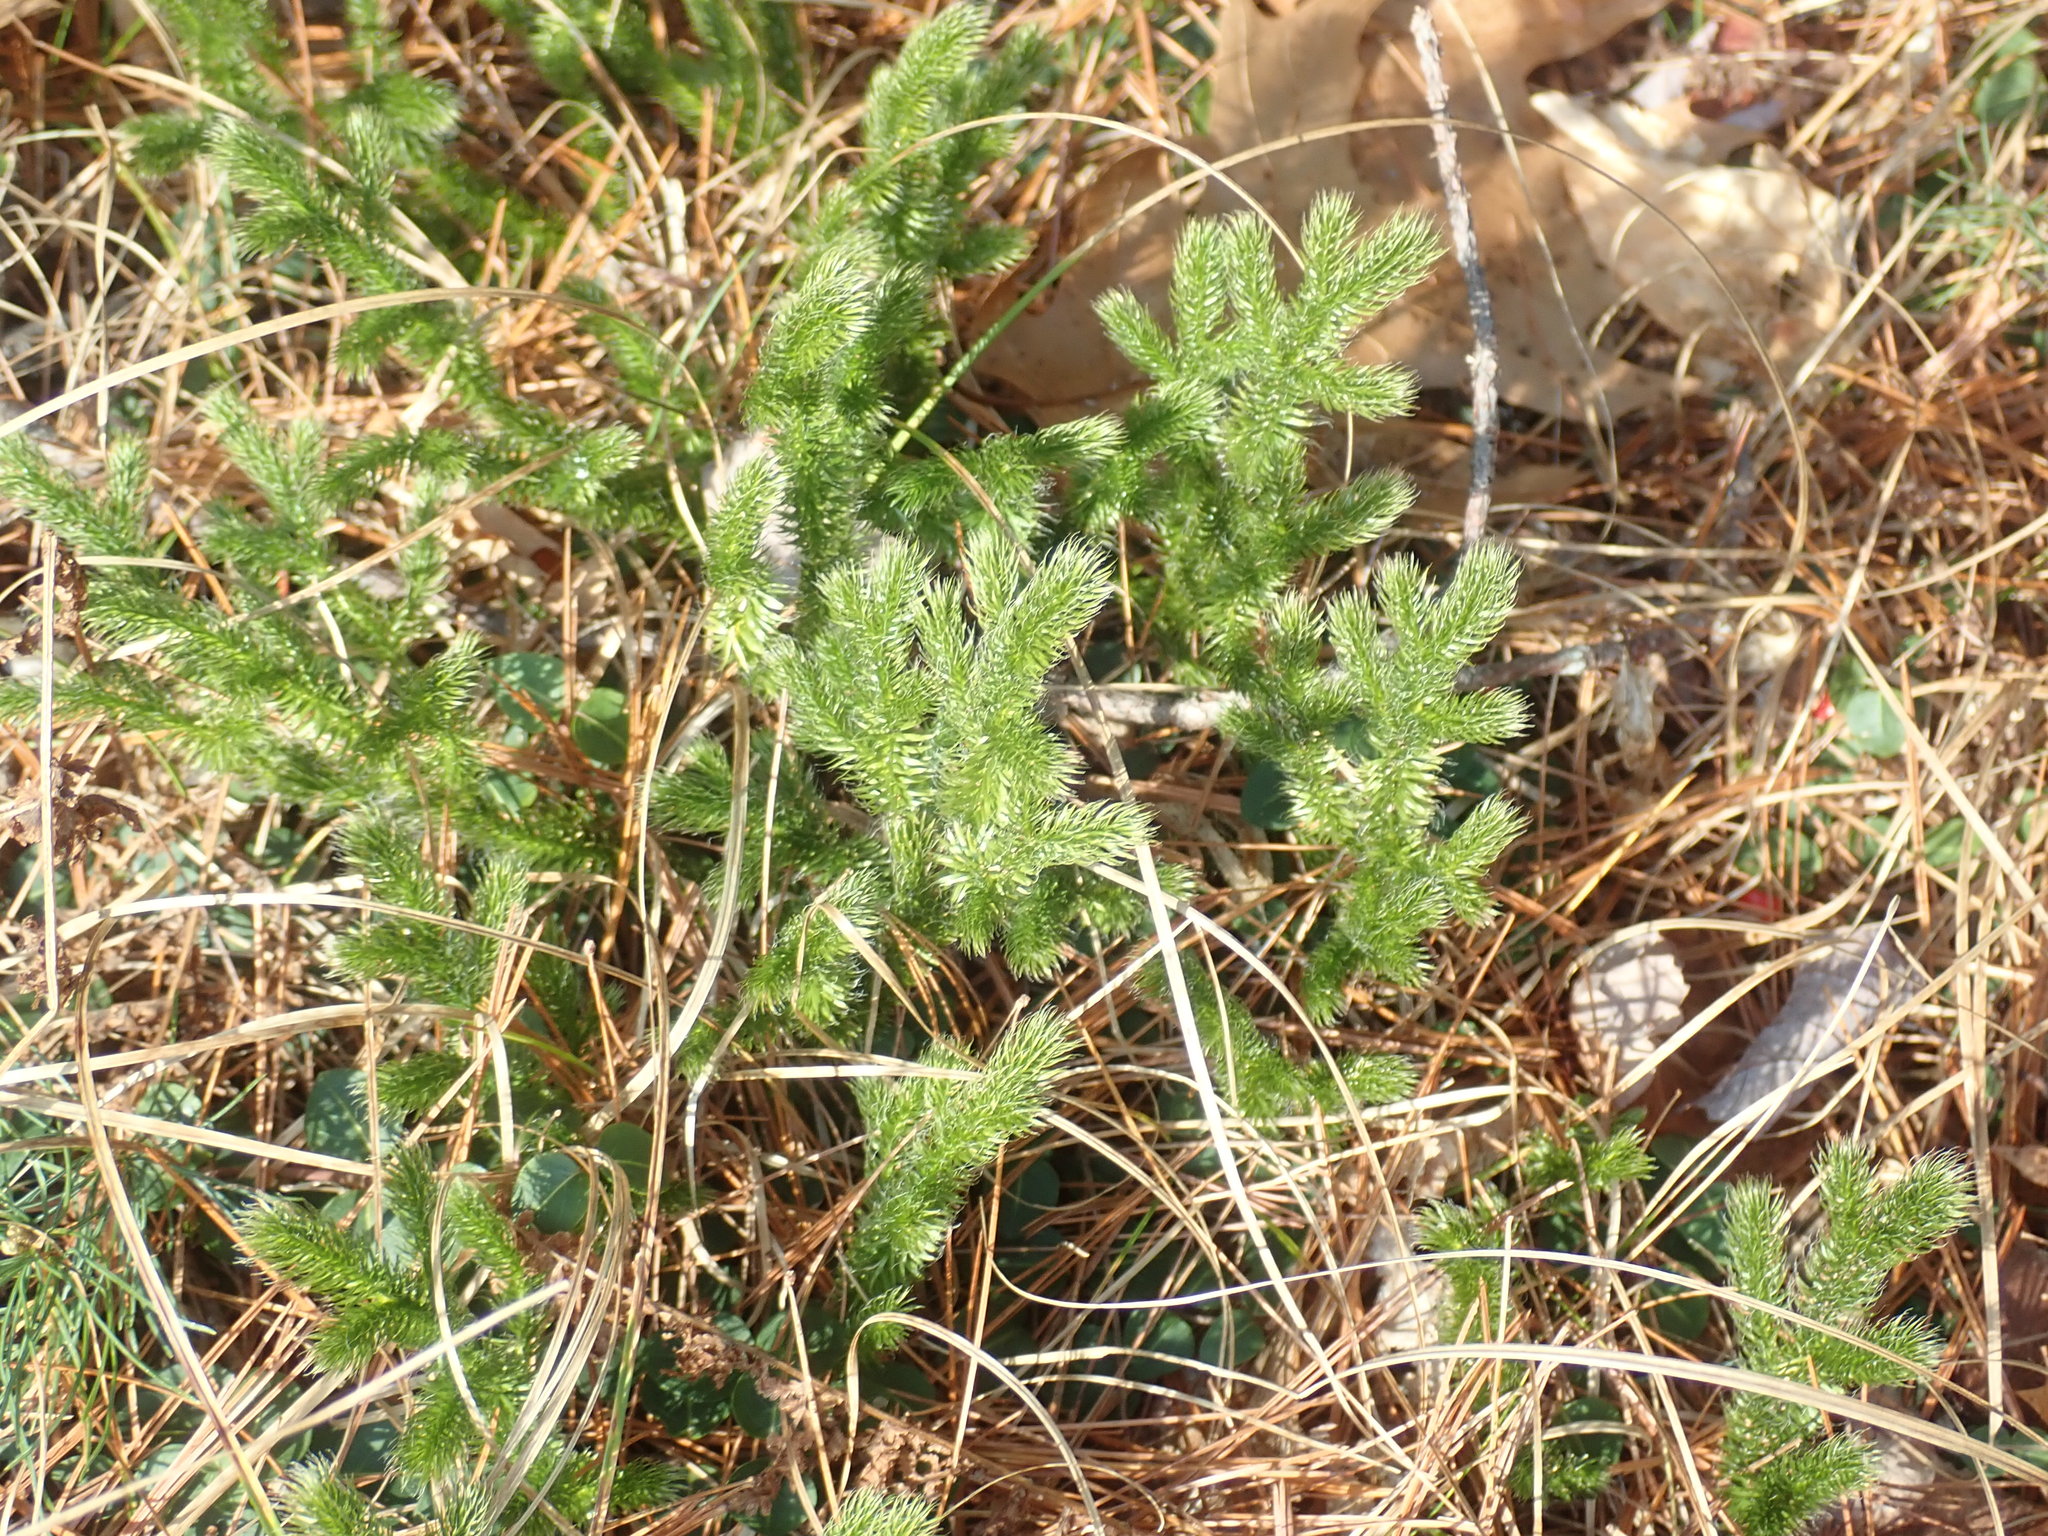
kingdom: Plantae
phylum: Tracheophyta
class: Lycopodiopsida
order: Lycopodiales
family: Lycopodiaceae
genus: Lycopodium
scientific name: Lycopodium clavatum
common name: Stag's-horn clubmoss
